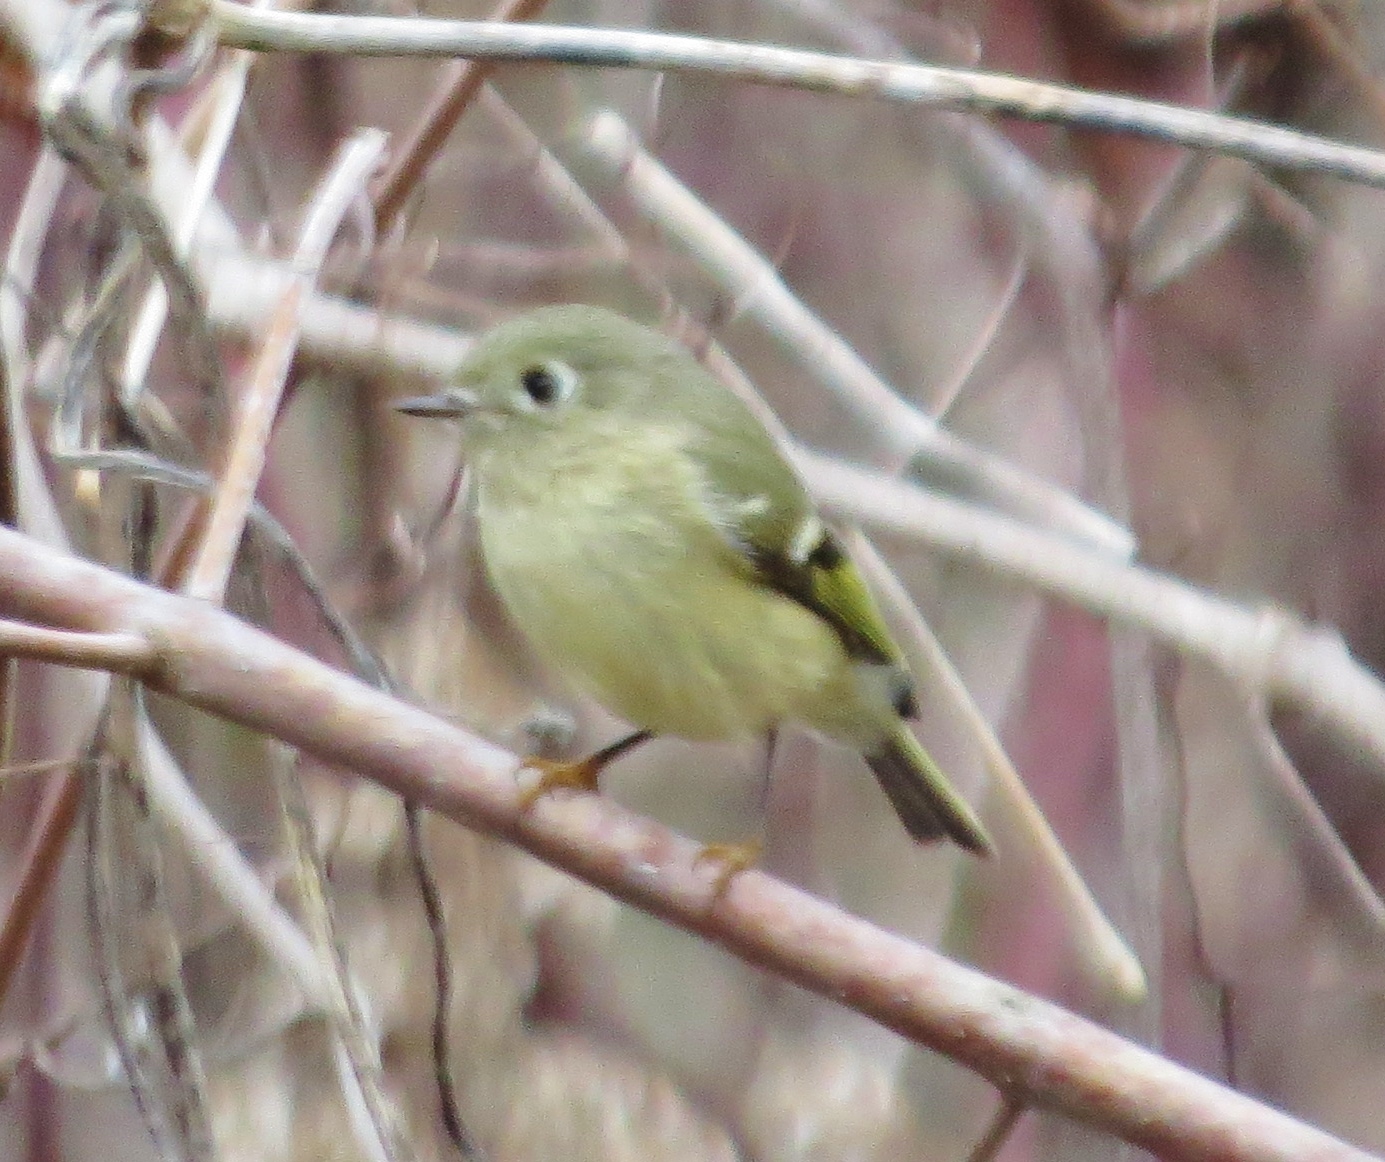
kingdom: Animalia
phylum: Chordata
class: Aves
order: Passeriformes
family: Regulidae
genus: Regulus
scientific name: Regulus calendula
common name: Ruby-crowned kinglet
